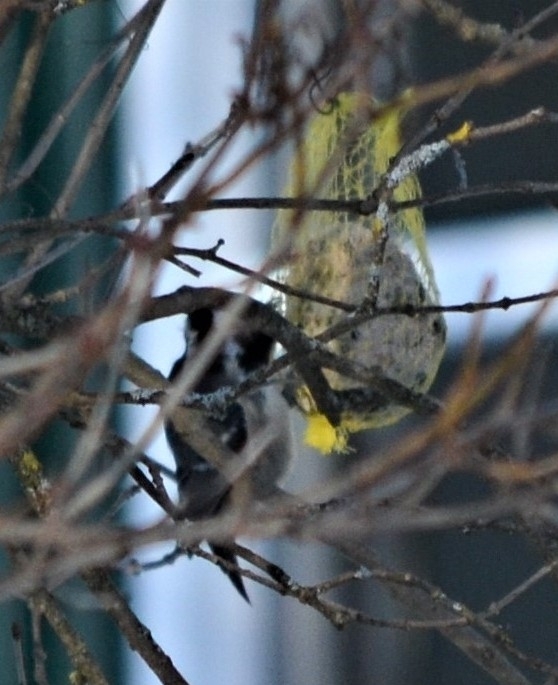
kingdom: Animalia
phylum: Chordata
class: Aves
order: Passeriformes
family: Paridae
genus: Periparus
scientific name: Periparus ater
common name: Coal tit
